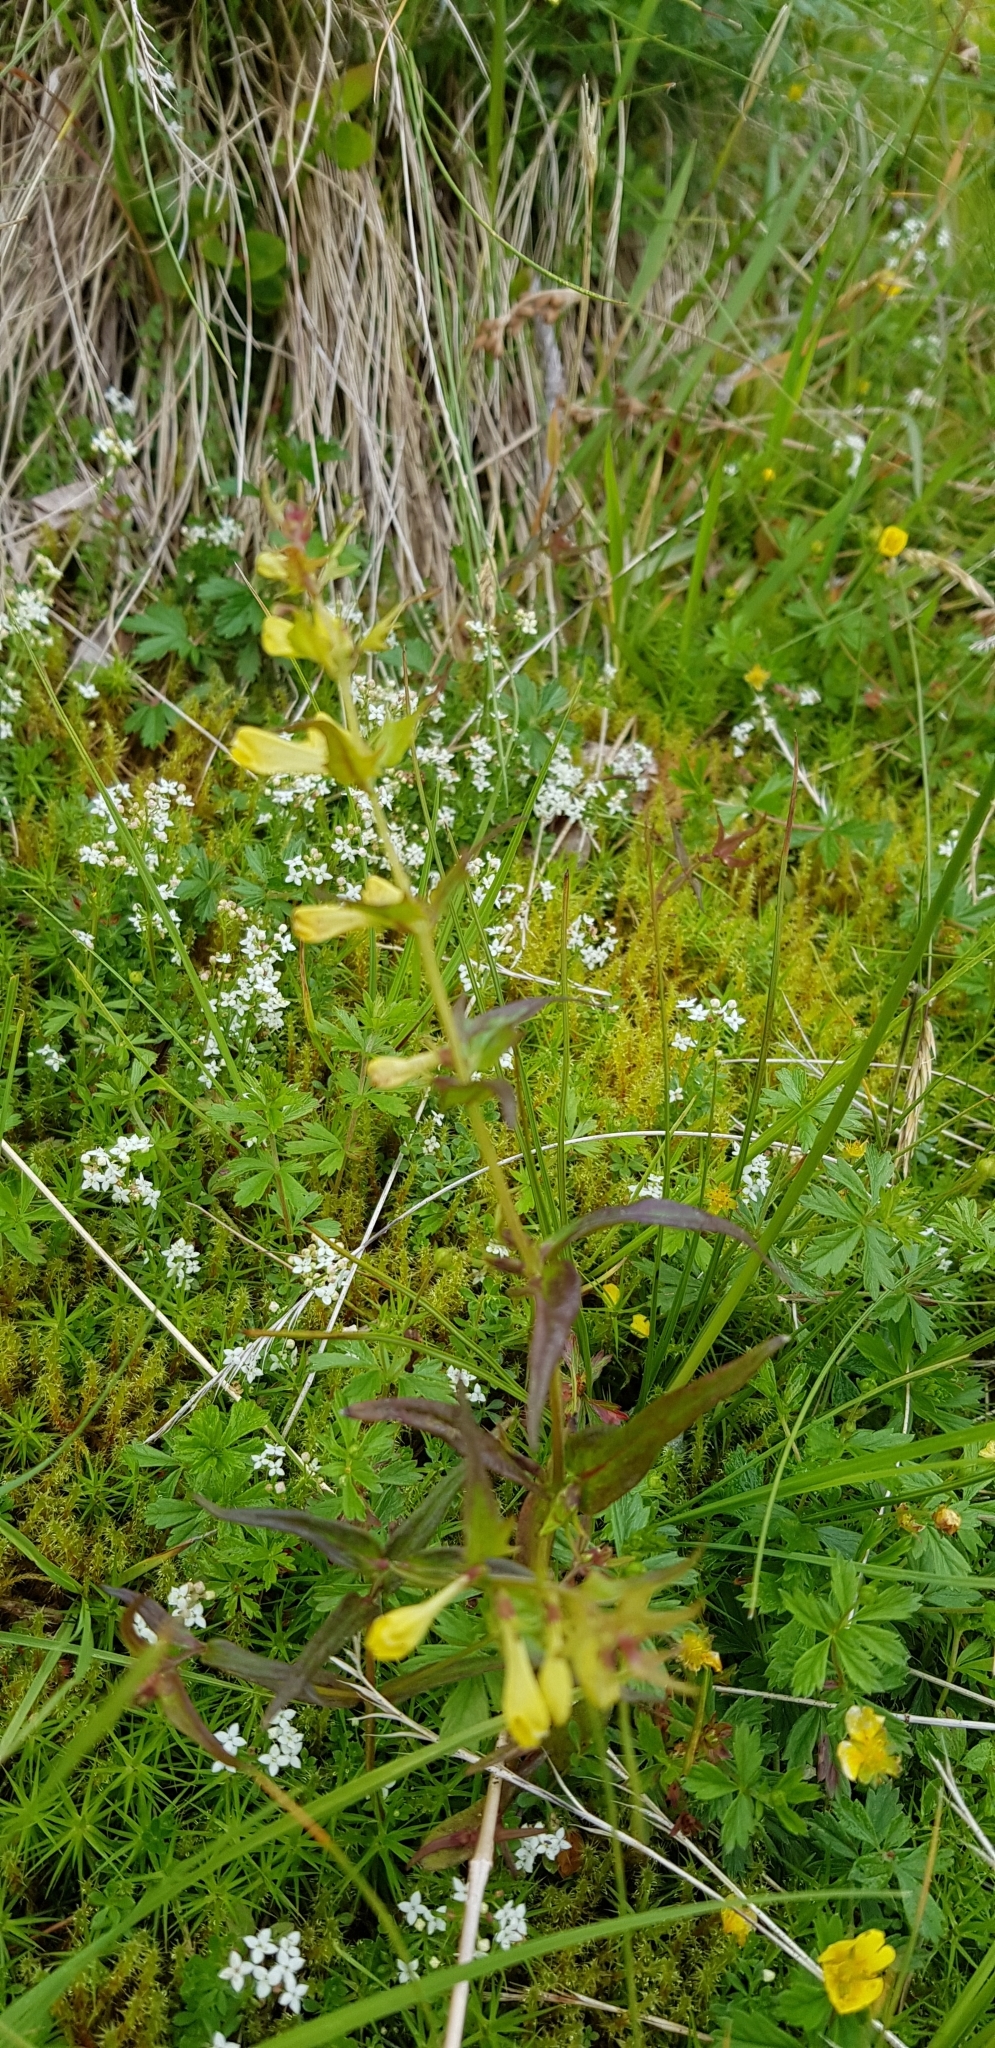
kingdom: Plantae
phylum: Tracheophyta
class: Magnoliopsida
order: Lamiales
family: Orobanchaceae
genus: Melampyrum
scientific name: Melampyrum pratense
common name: Common cow-wheat
